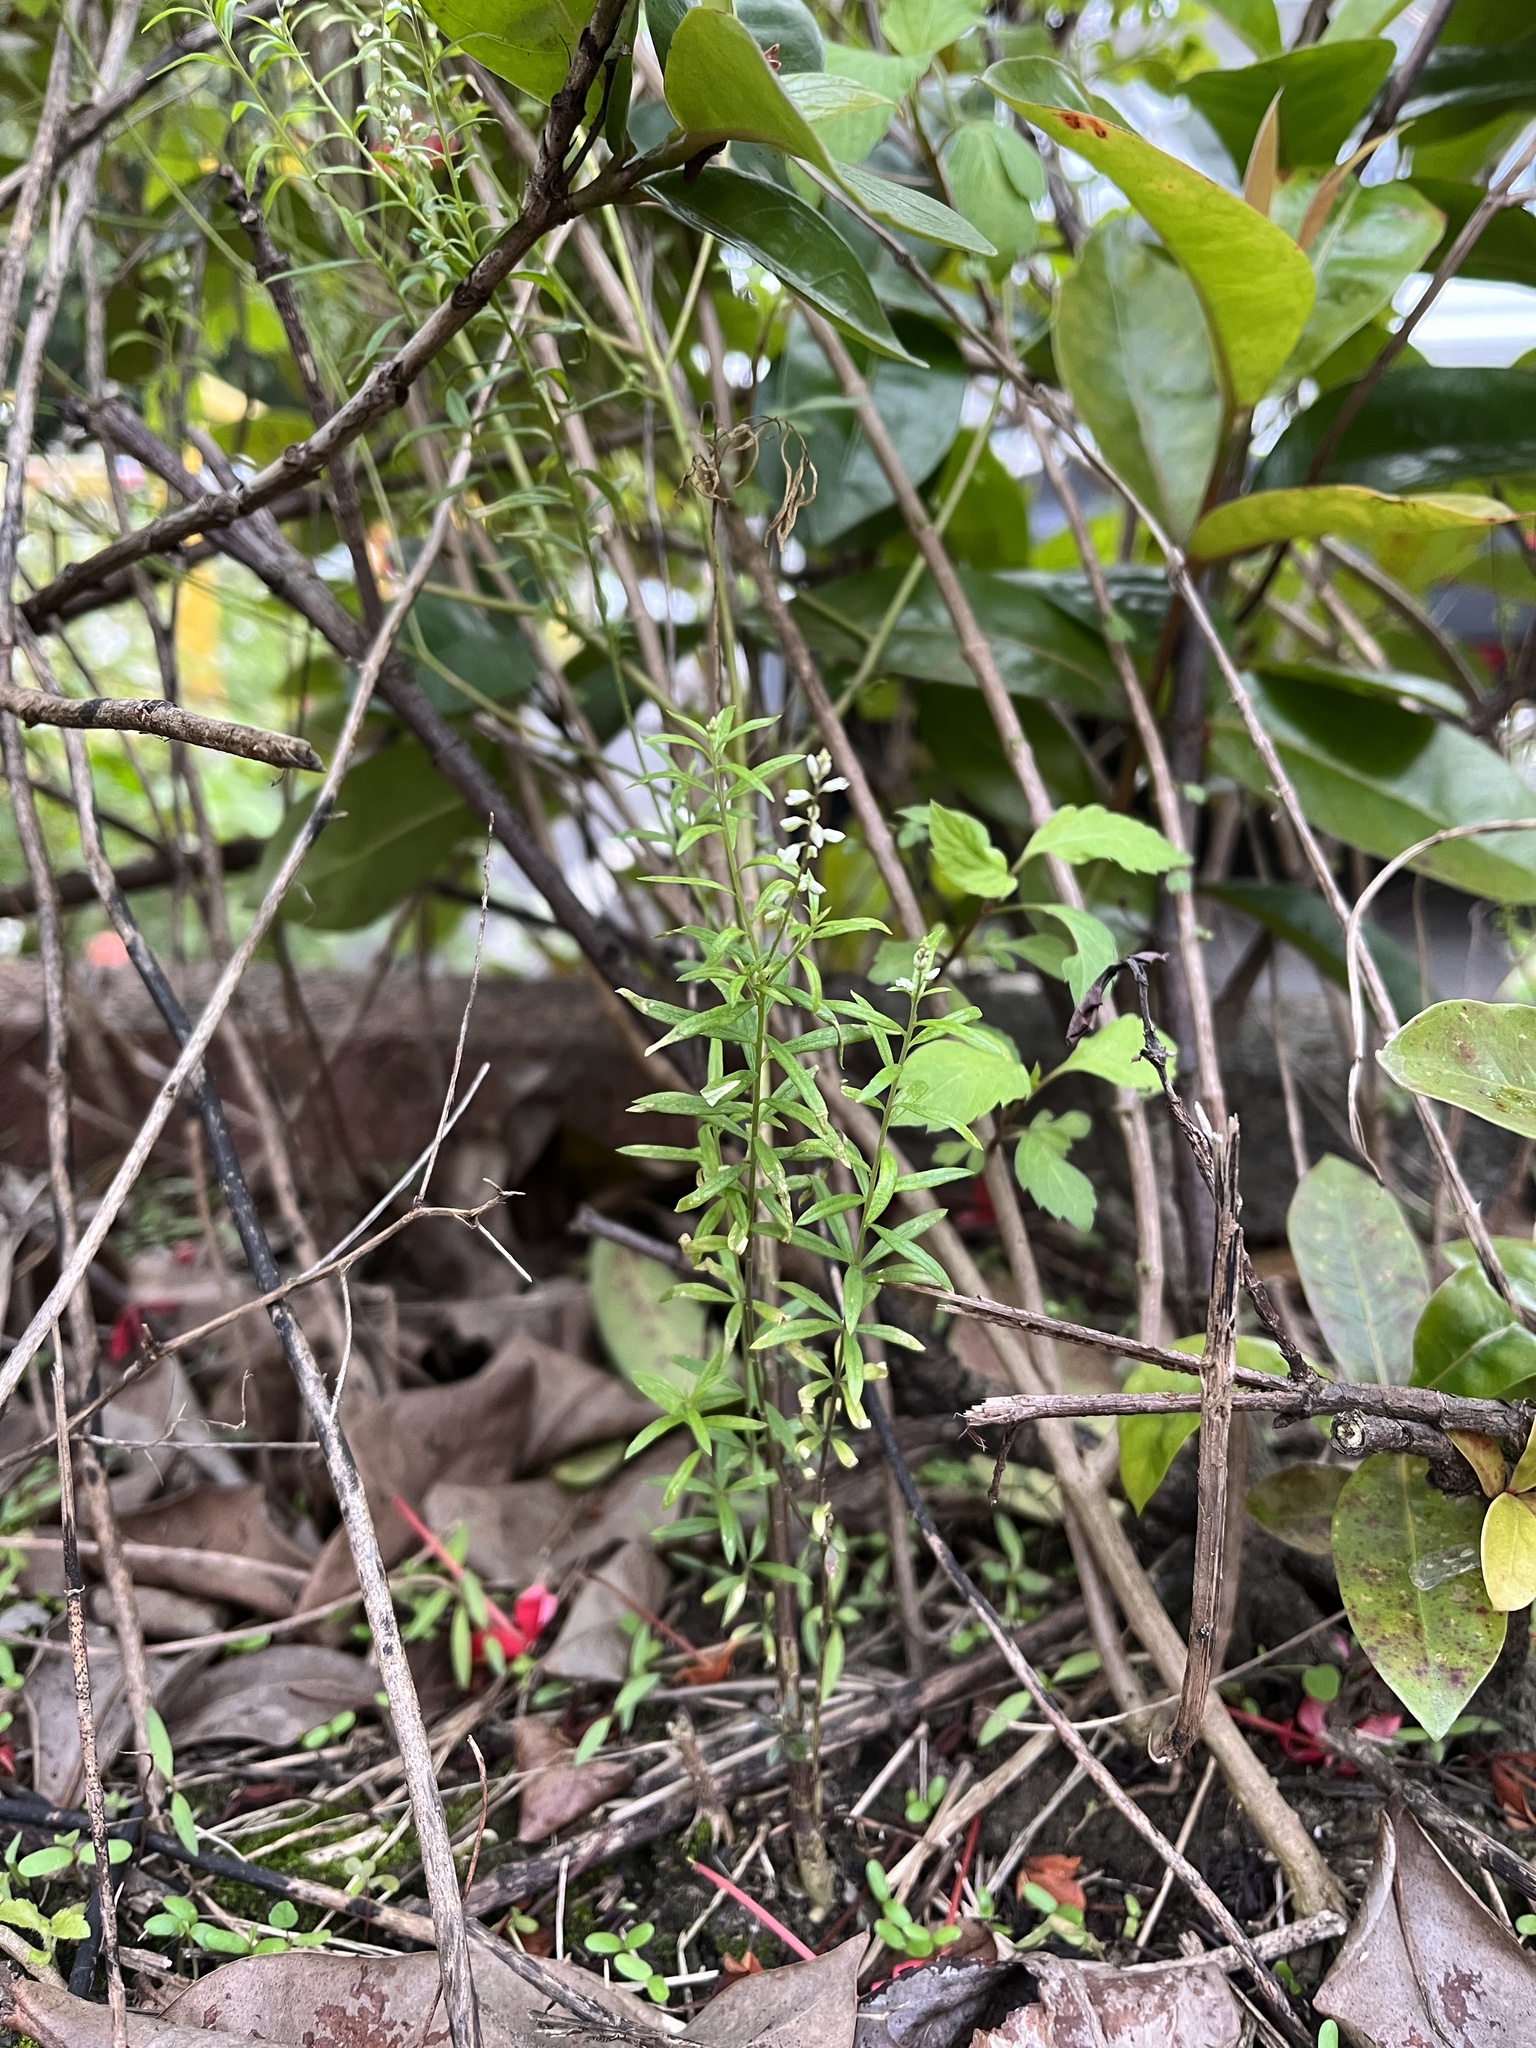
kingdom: Plantae
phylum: Tracheophyta
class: Magnoliopsida
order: Fabales
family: Polygalaceae
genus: Polygala
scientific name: Polygala paniculata
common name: Orosne
